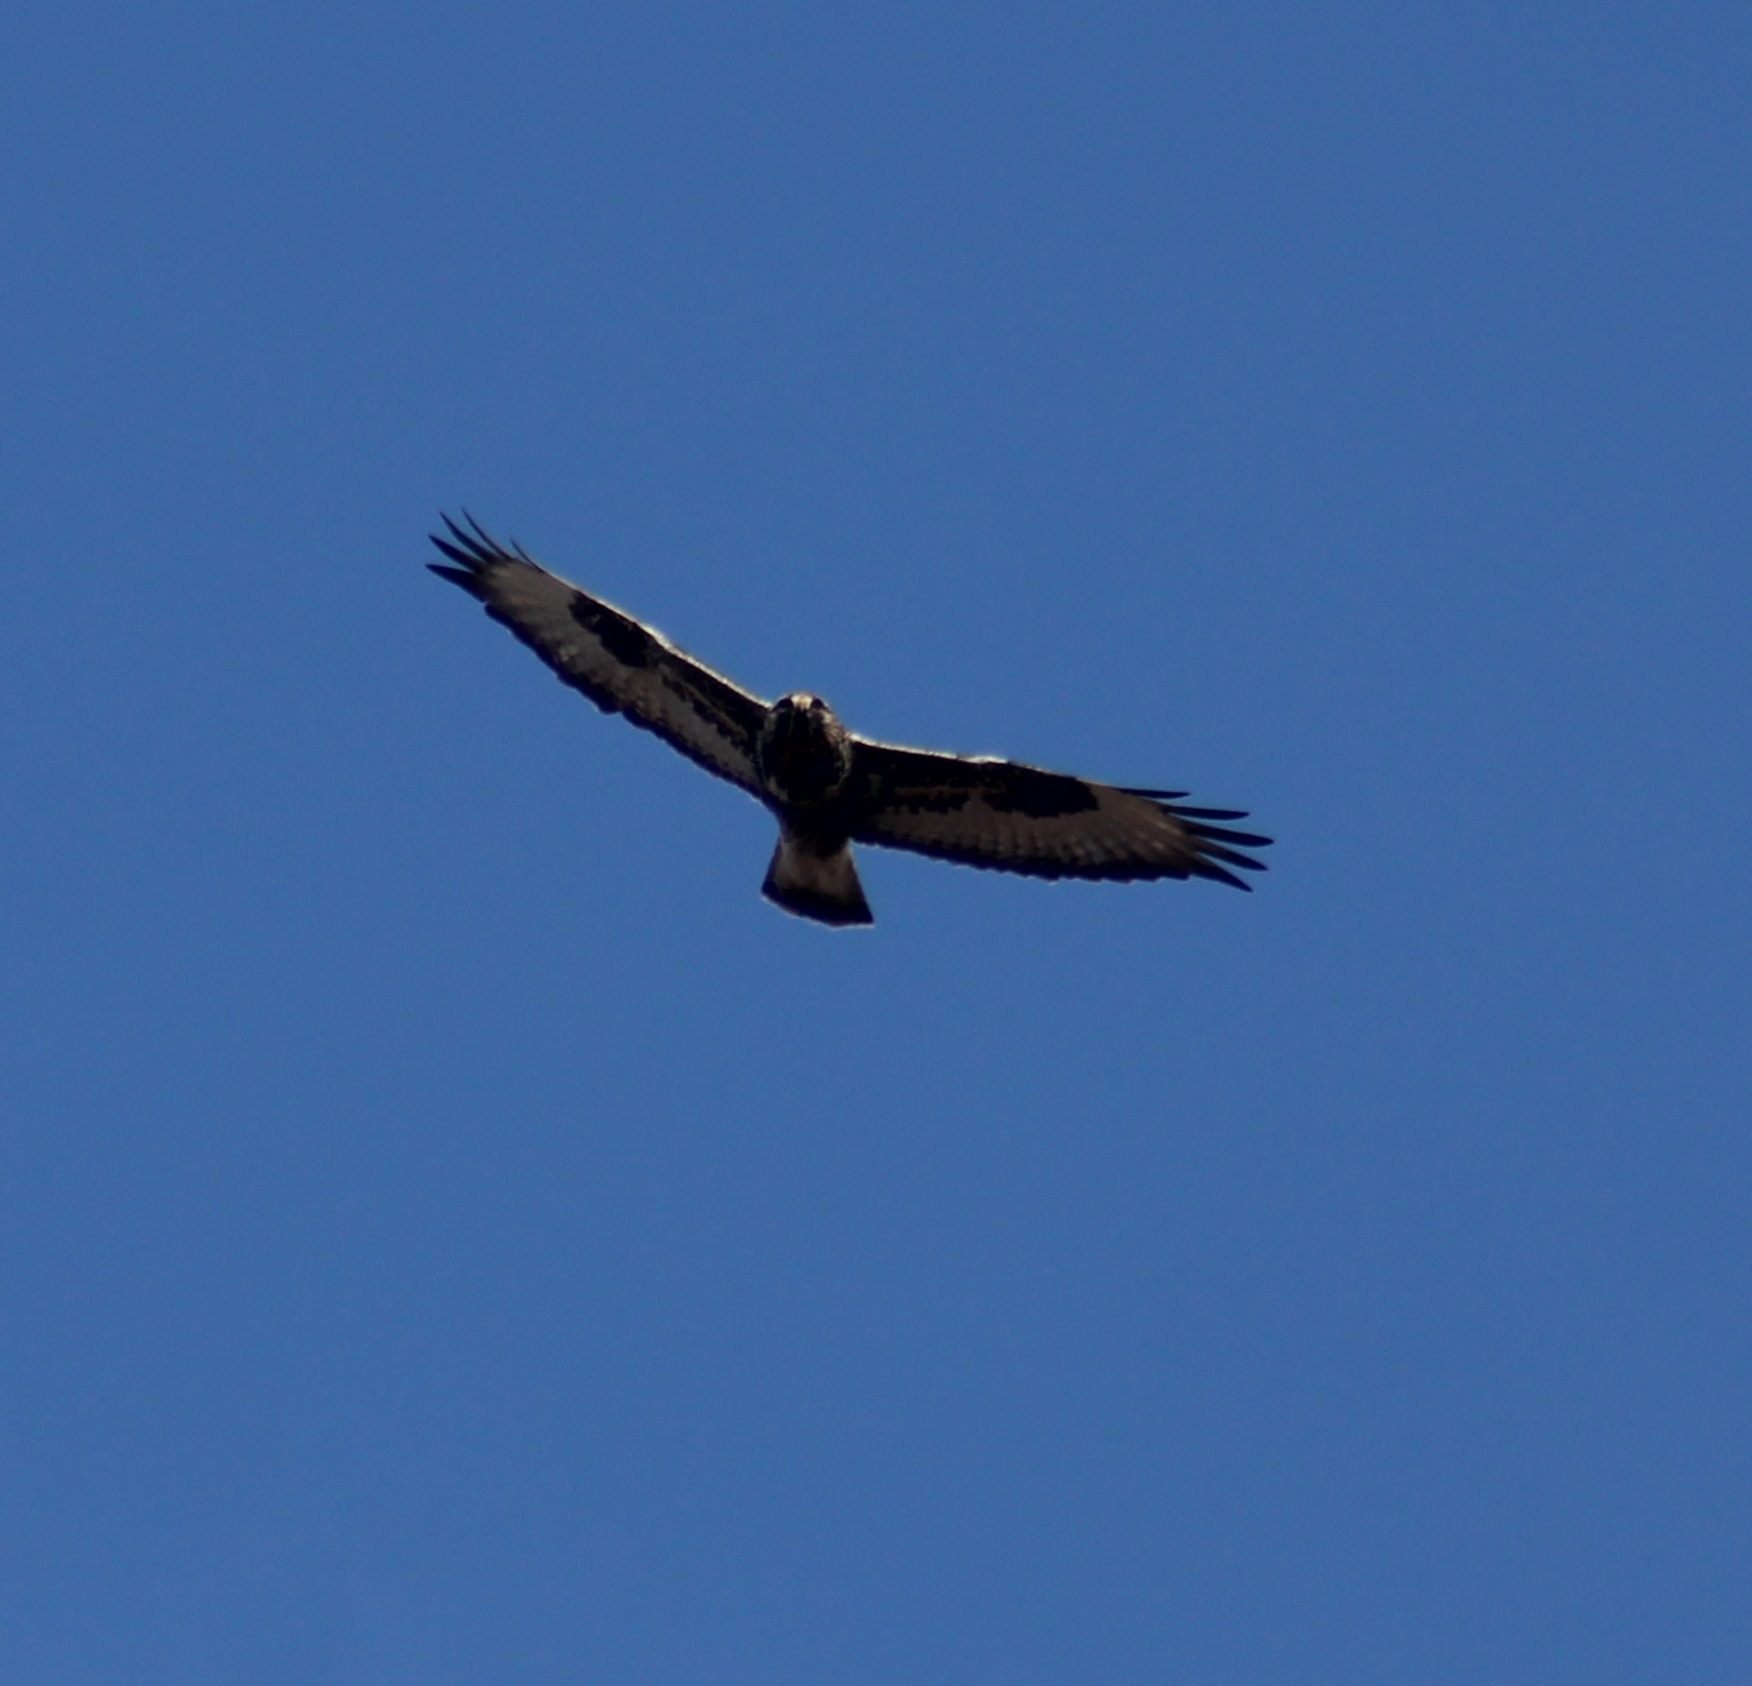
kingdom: Animalia
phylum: Chordata
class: Aves
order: Accipitriformes
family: Accipitridae
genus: Buteo
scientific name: Buteo lagopus
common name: Rough-legged buzzard
